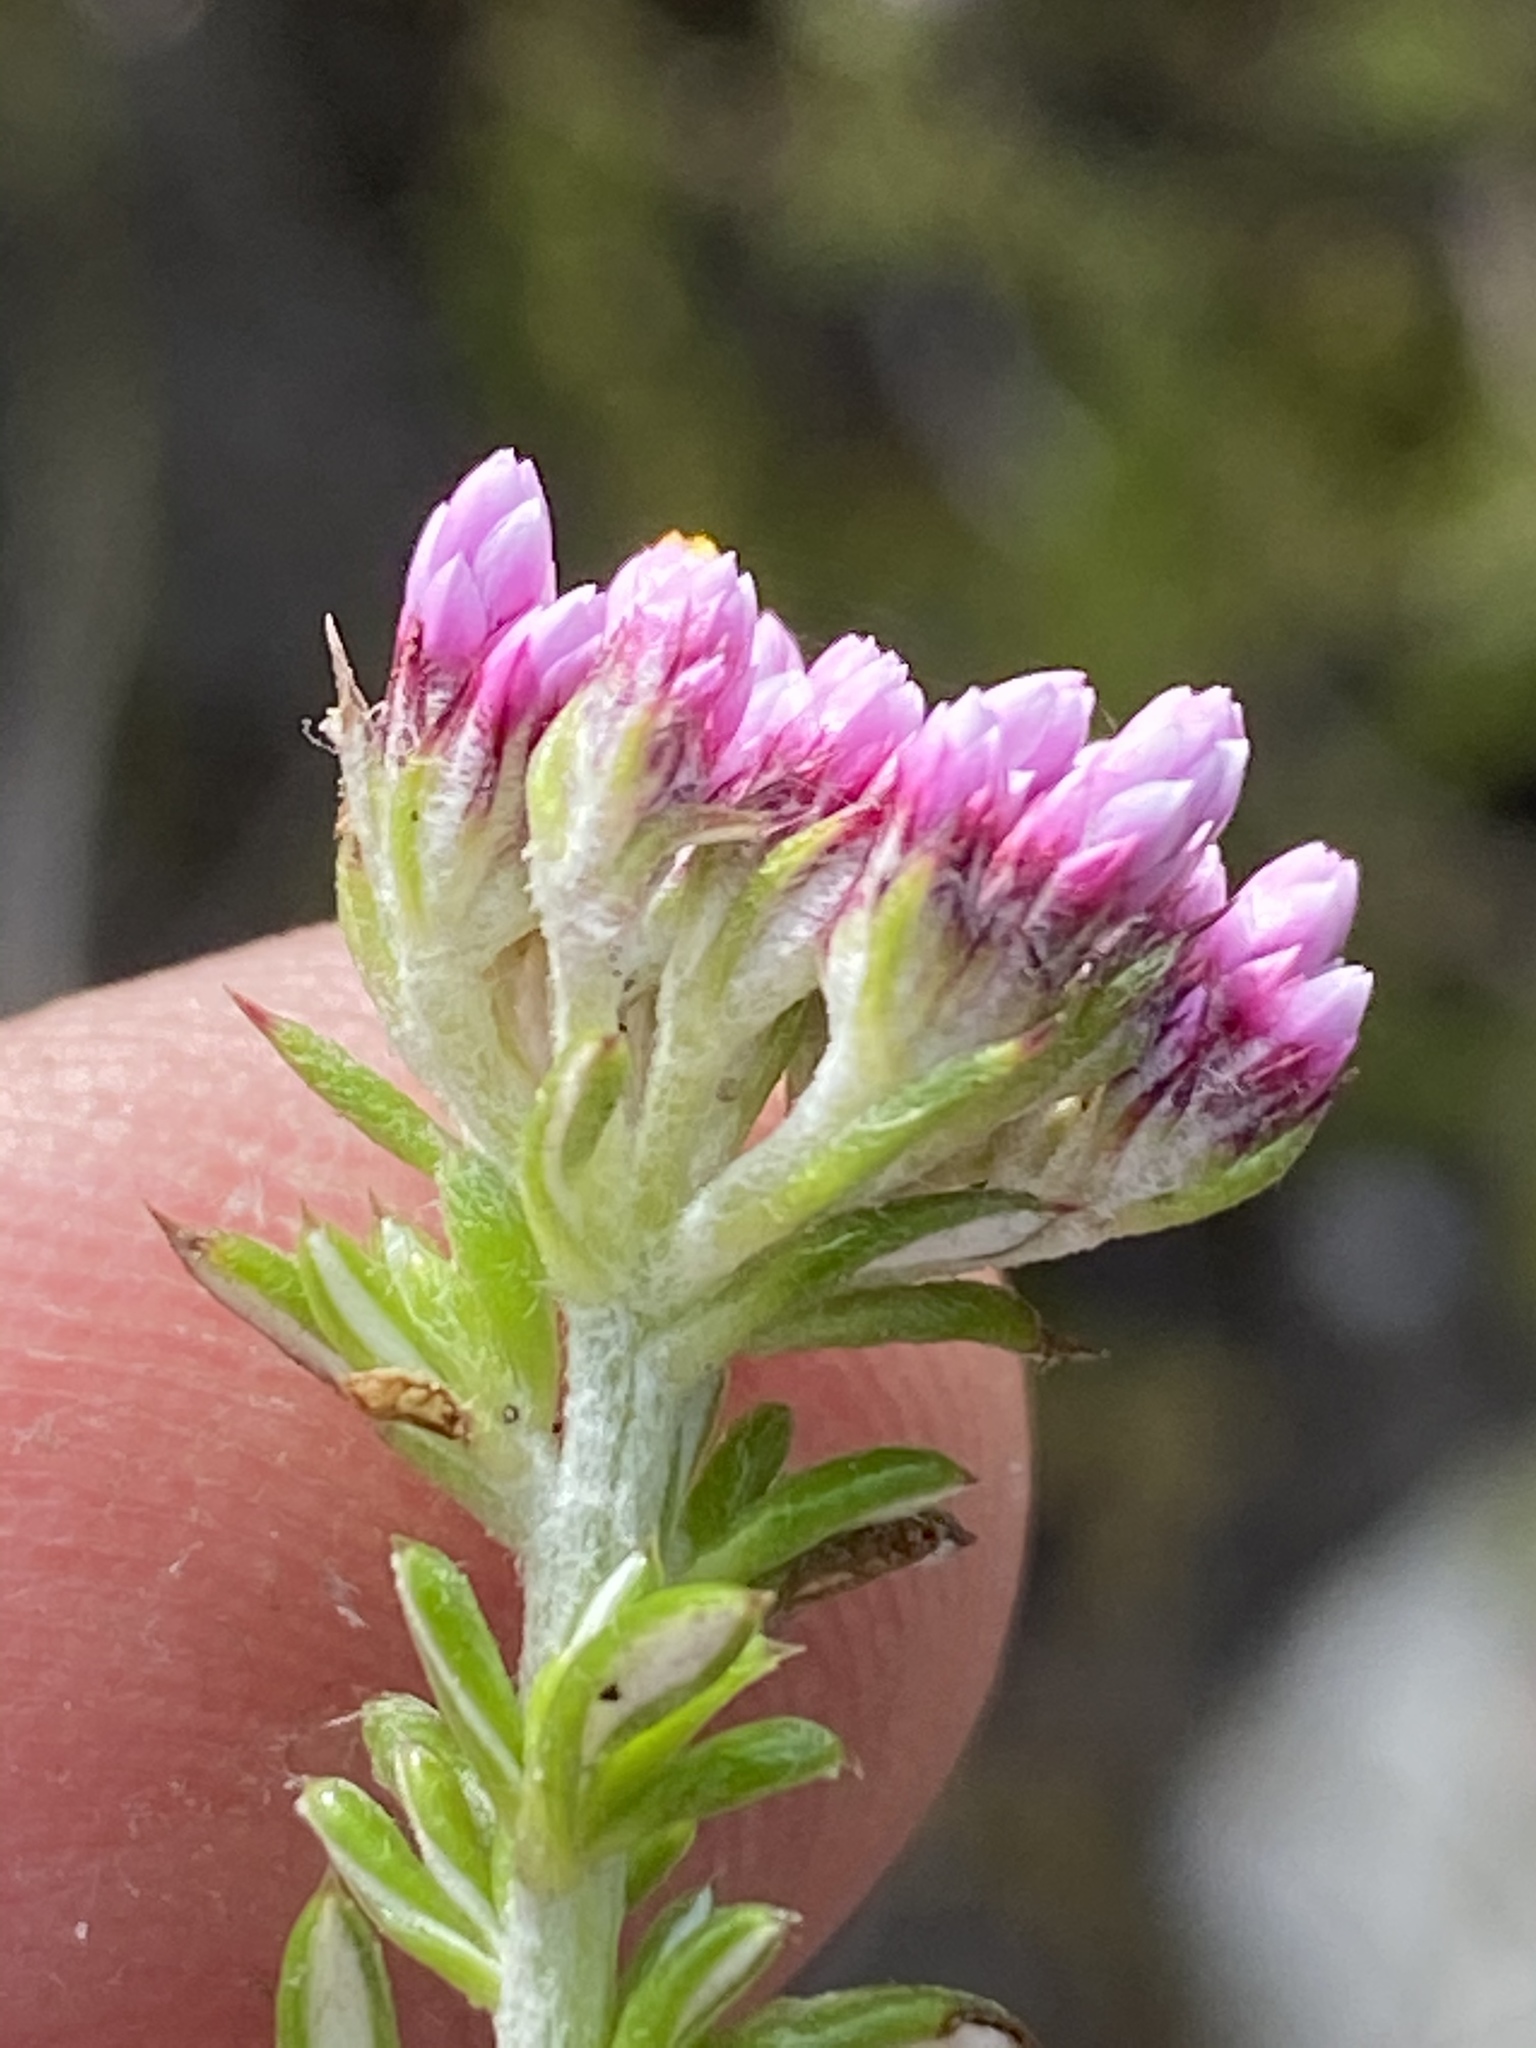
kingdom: Plantae
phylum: Tracheophyta
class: Magnoliopsida
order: Asterales
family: Asteraceae
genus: Metalasia
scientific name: Metalasia erubescens
